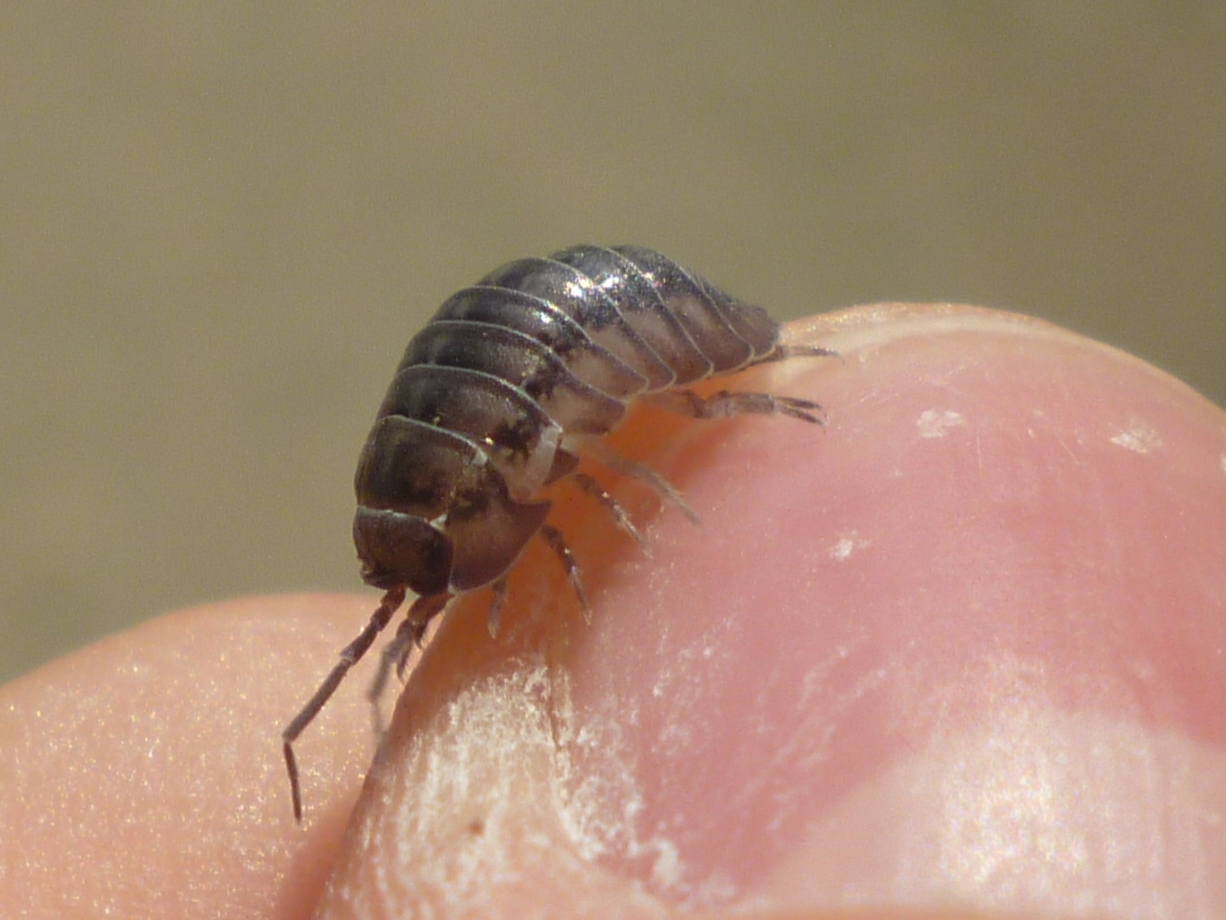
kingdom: Animalia
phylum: Arthropoda
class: Malacostraca
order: Isopoda
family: Armadillidiidae
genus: Armadillidium
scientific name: Armadillidium nasatum
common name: Isopod
